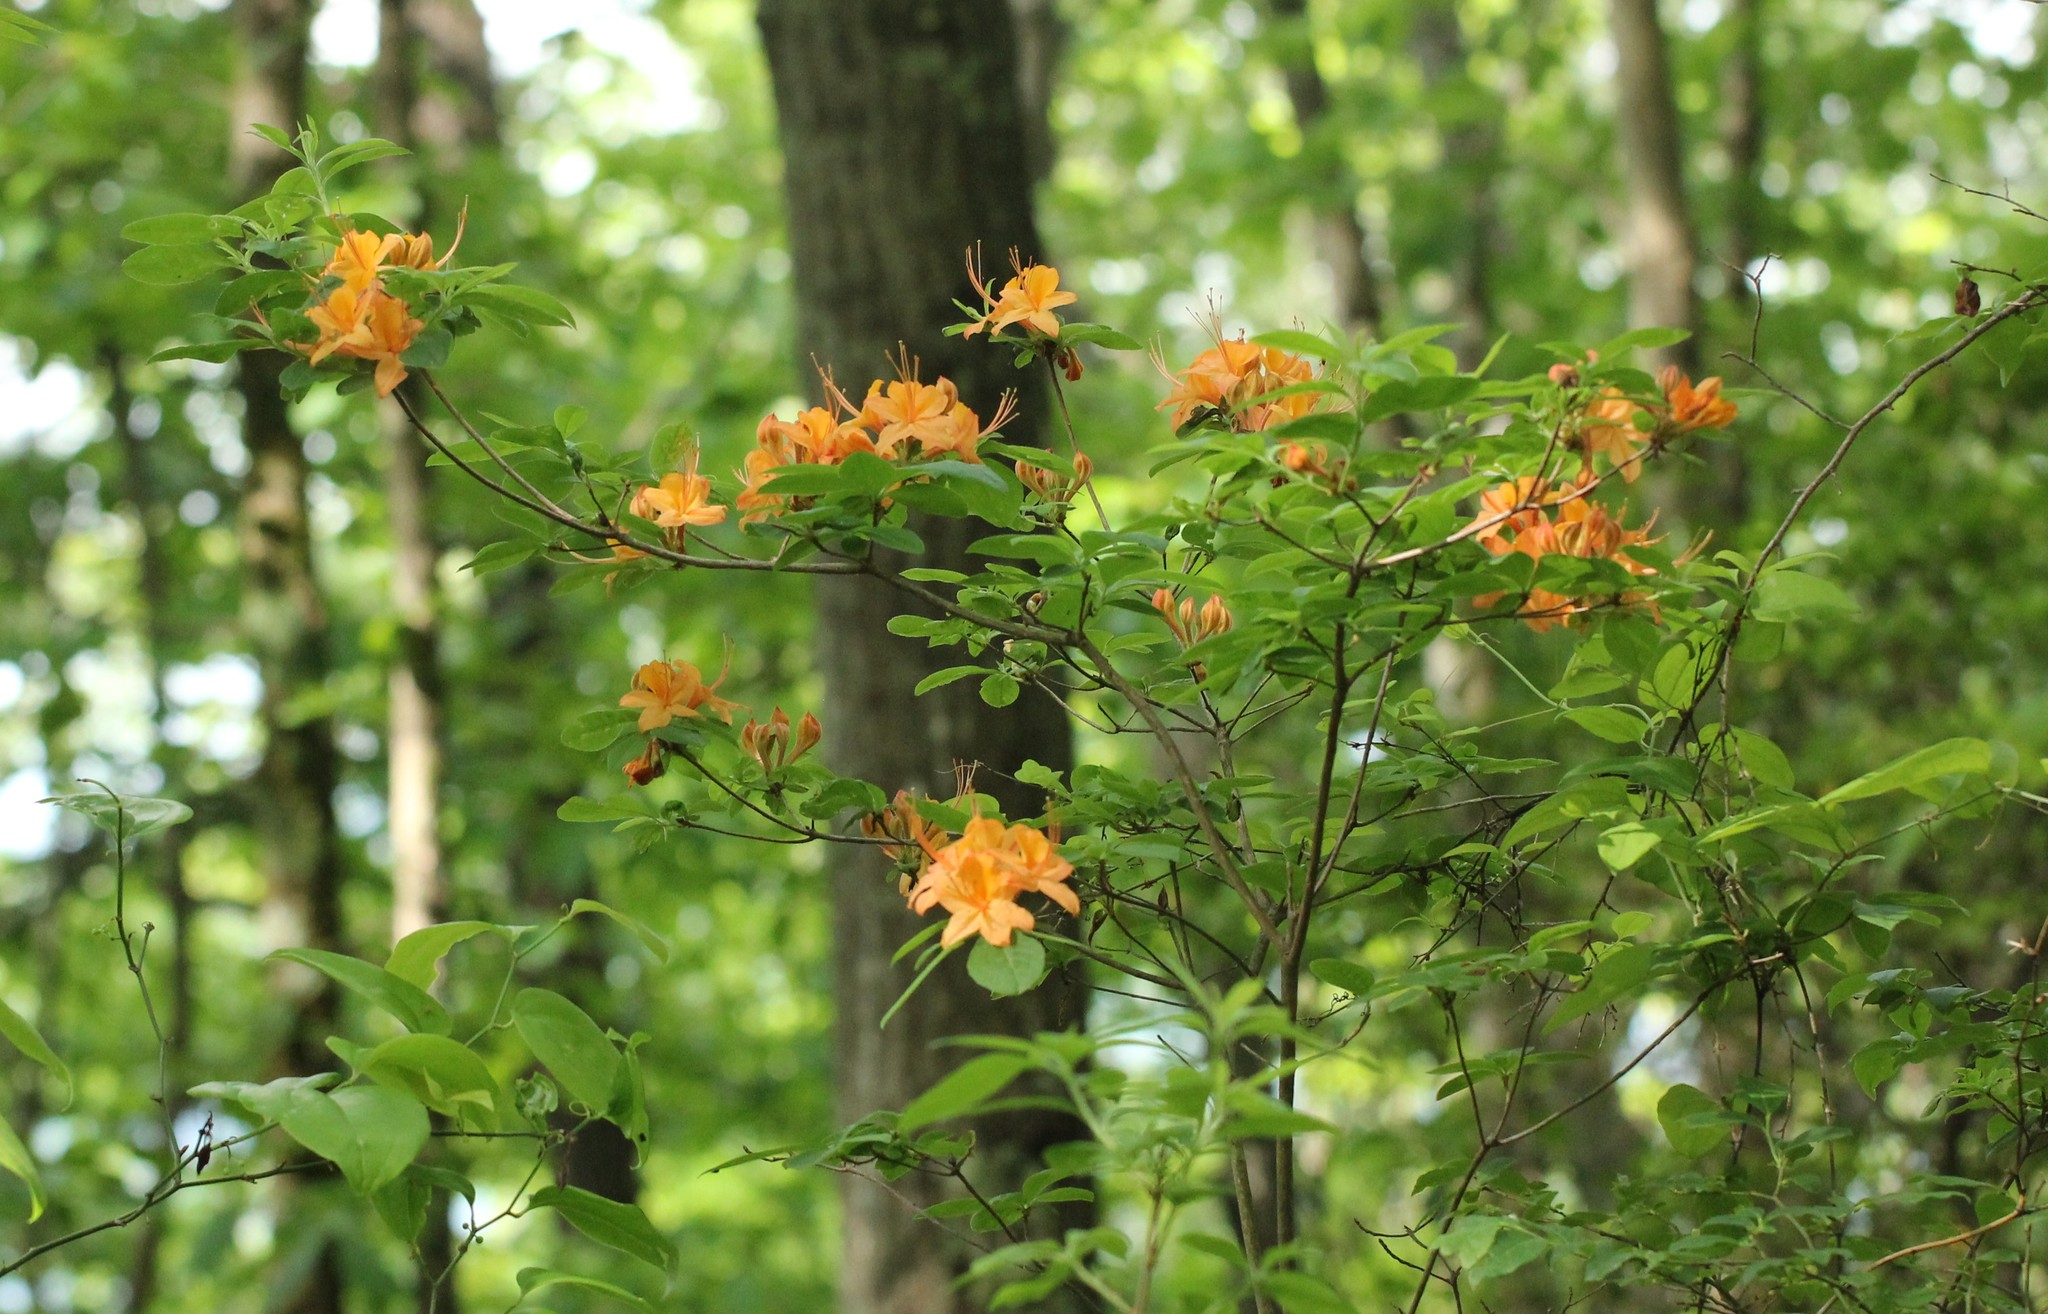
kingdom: Plantae
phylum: Tracheophyta
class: Magnoliopsida
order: Ericales
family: Ericaceae
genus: Rhododendron
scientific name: Rhododendron calendulaceum
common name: Flame azalea
